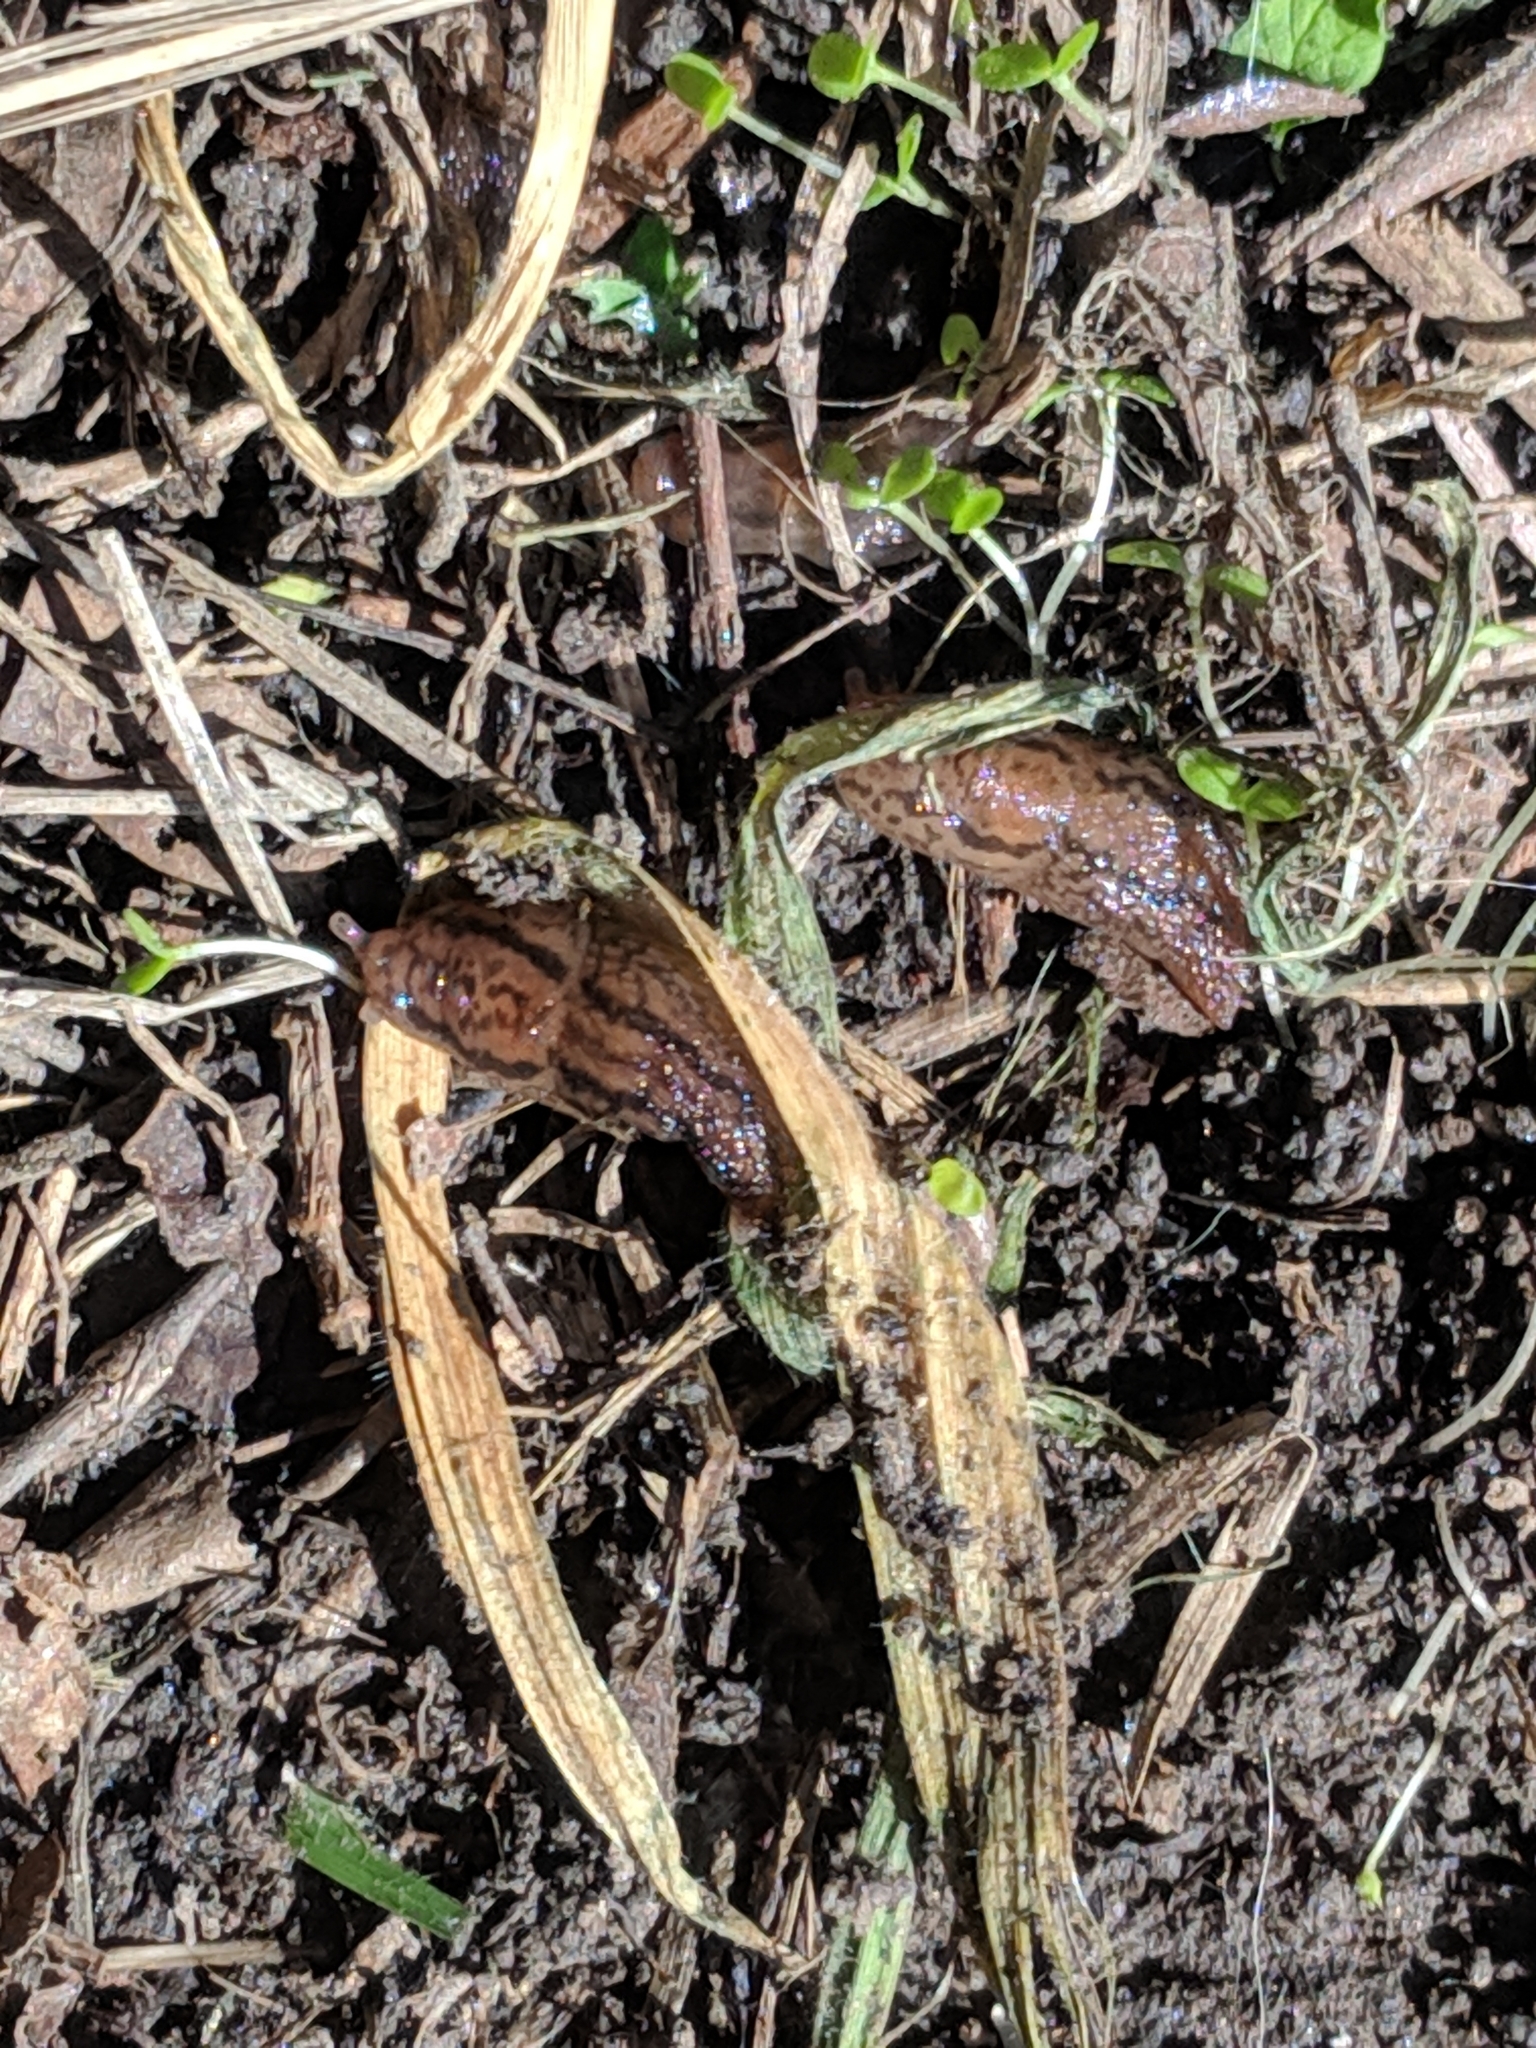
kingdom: Animalia
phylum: Mollusca
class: Gastropoda
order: Stylommatophora
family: Limacidae
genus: Ambigolimax
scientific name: Ambigolimax
